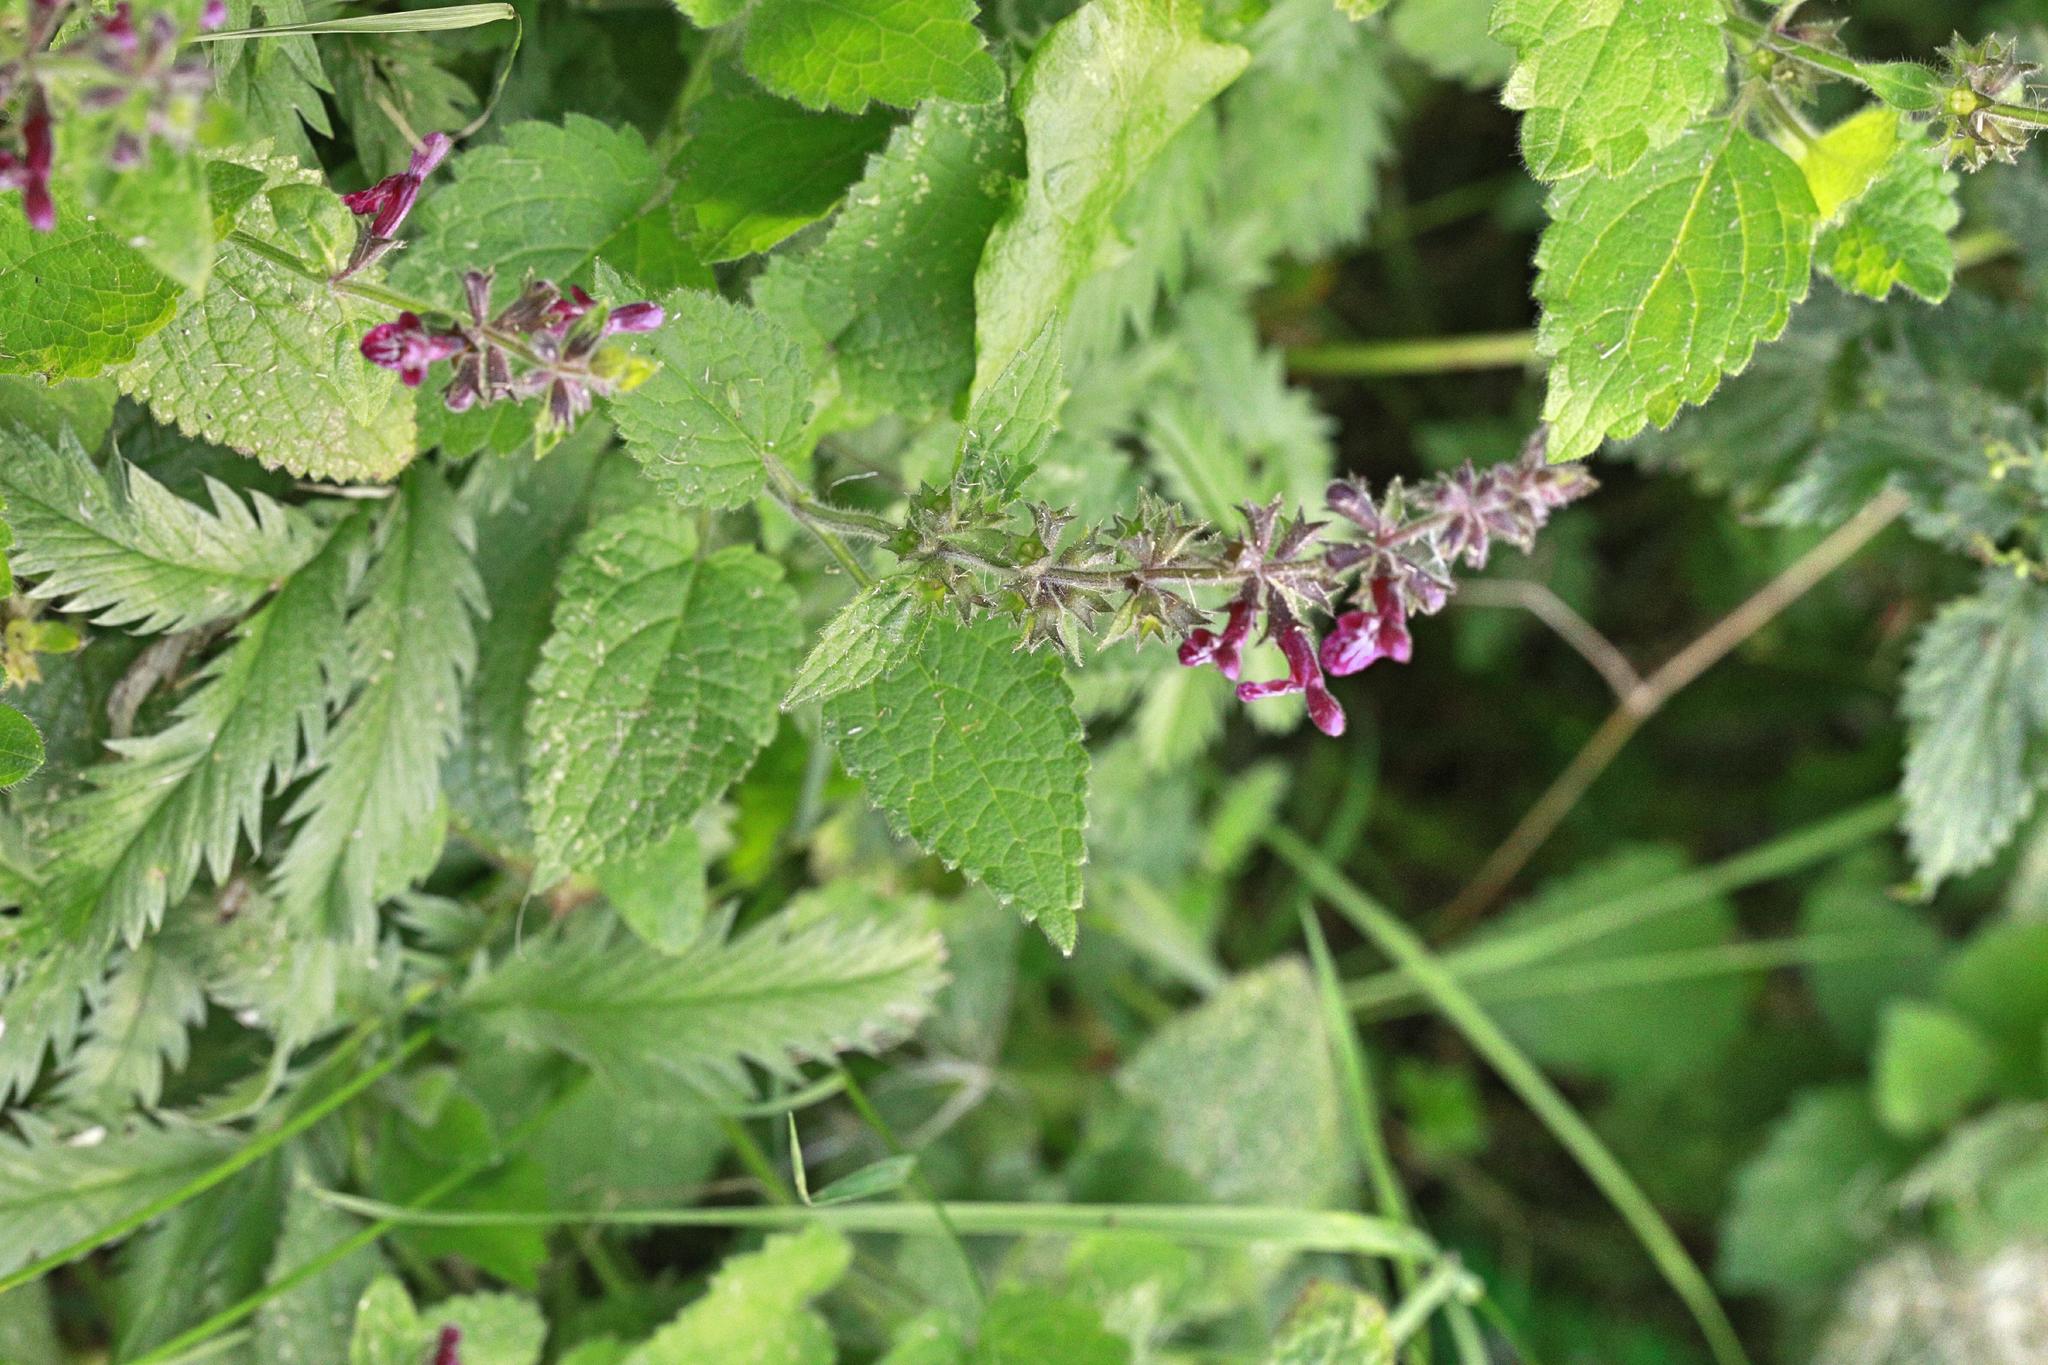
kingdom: Plantae
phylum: Tracheophyta
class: Magnoliopsida
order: Lamiales
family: Lamiaceae
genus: Stachys
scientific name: Stachys sylvatica
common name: Hedge woundwort
